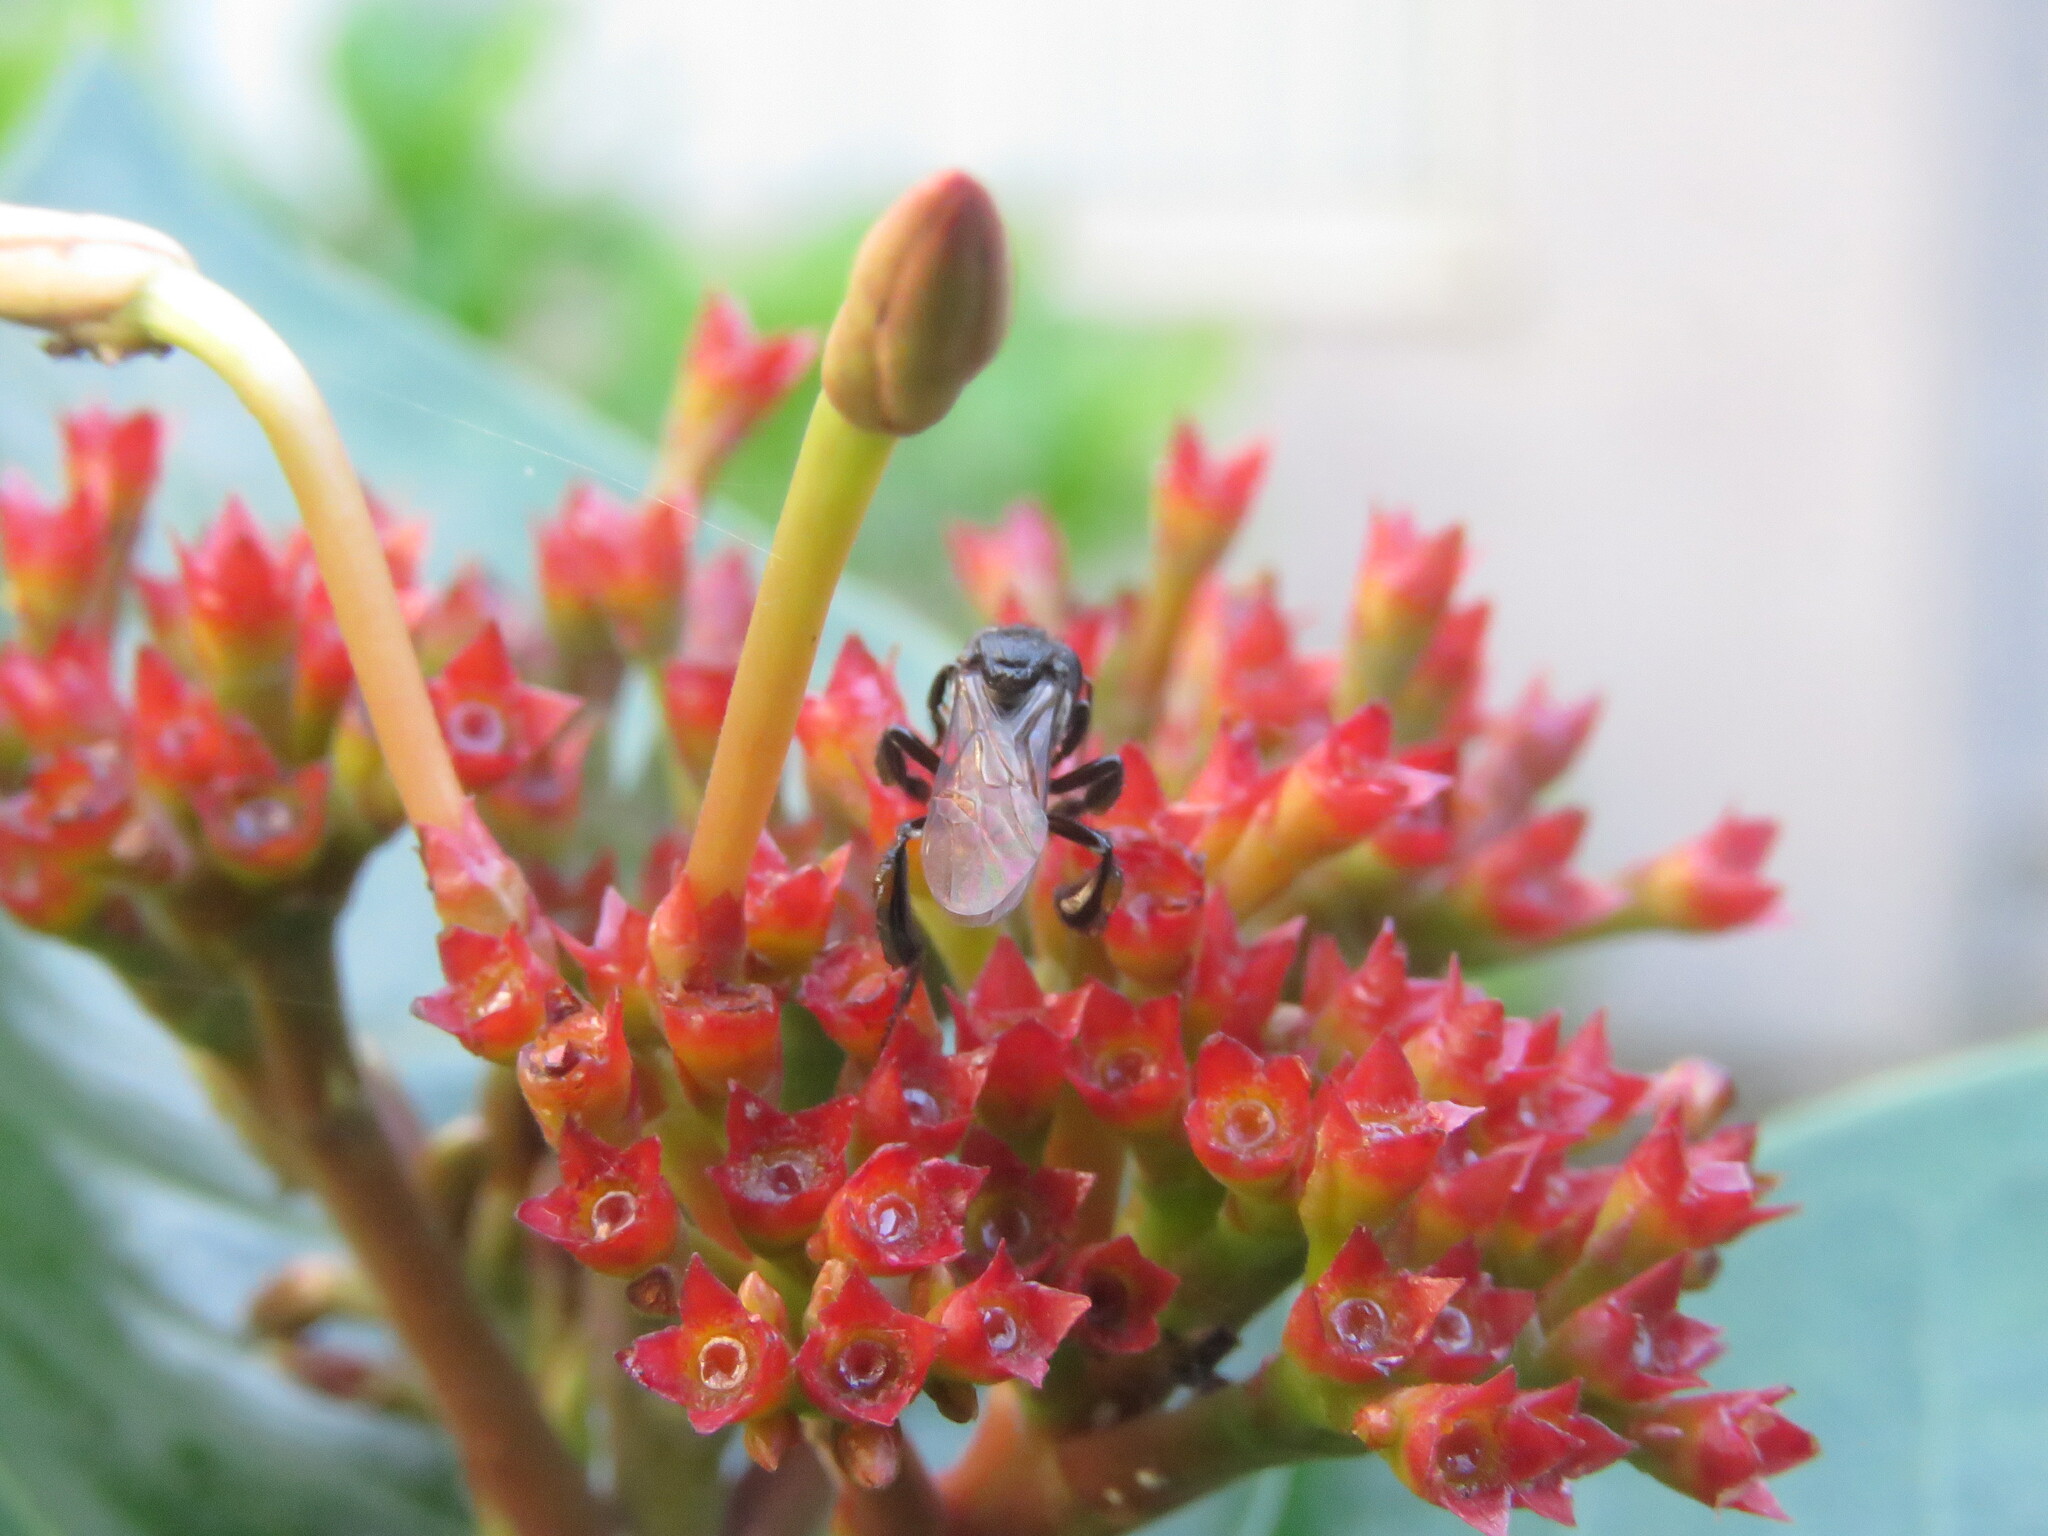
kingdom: Animalia
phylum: Arthropoda
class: Insecta
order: Hymenoptera
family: Apidae
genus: Trigona
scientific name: Trigona fulviventris
